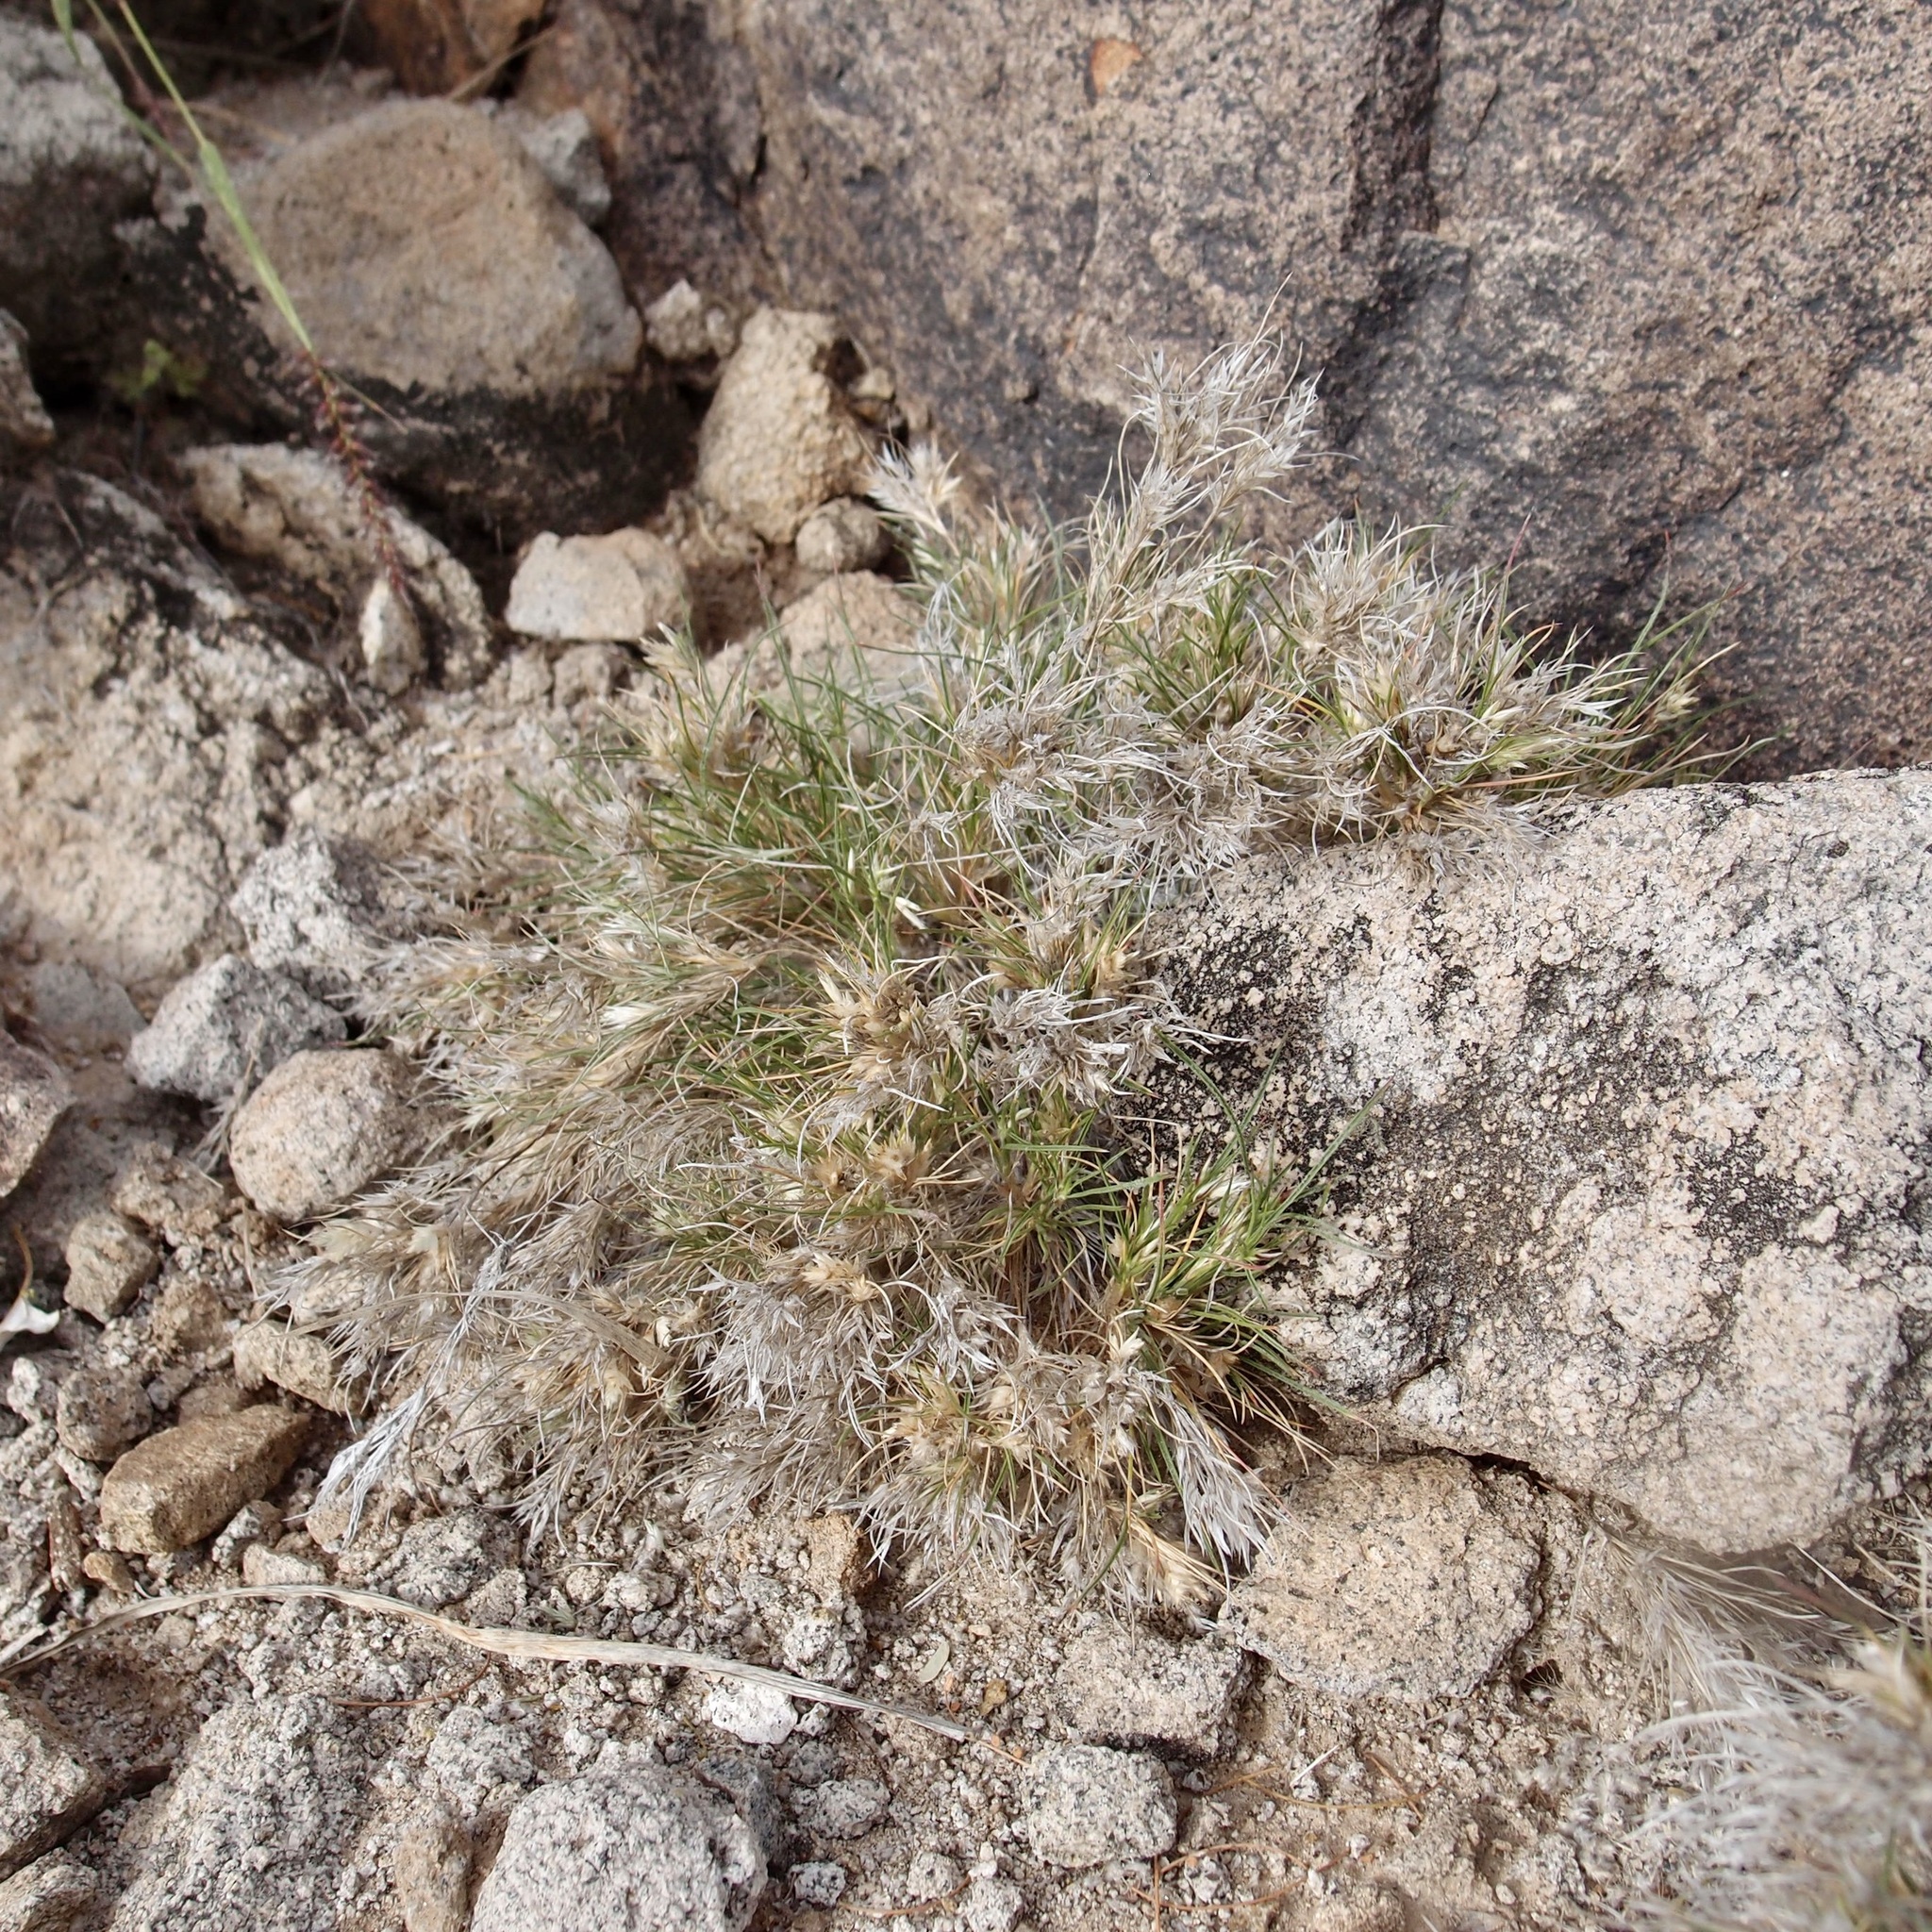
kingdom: Plantae
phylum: Tracheophyta
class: Liliopsida
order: Poales
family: Poaceae
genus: Dasyochloa
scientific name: Dasyochloa pulchella
